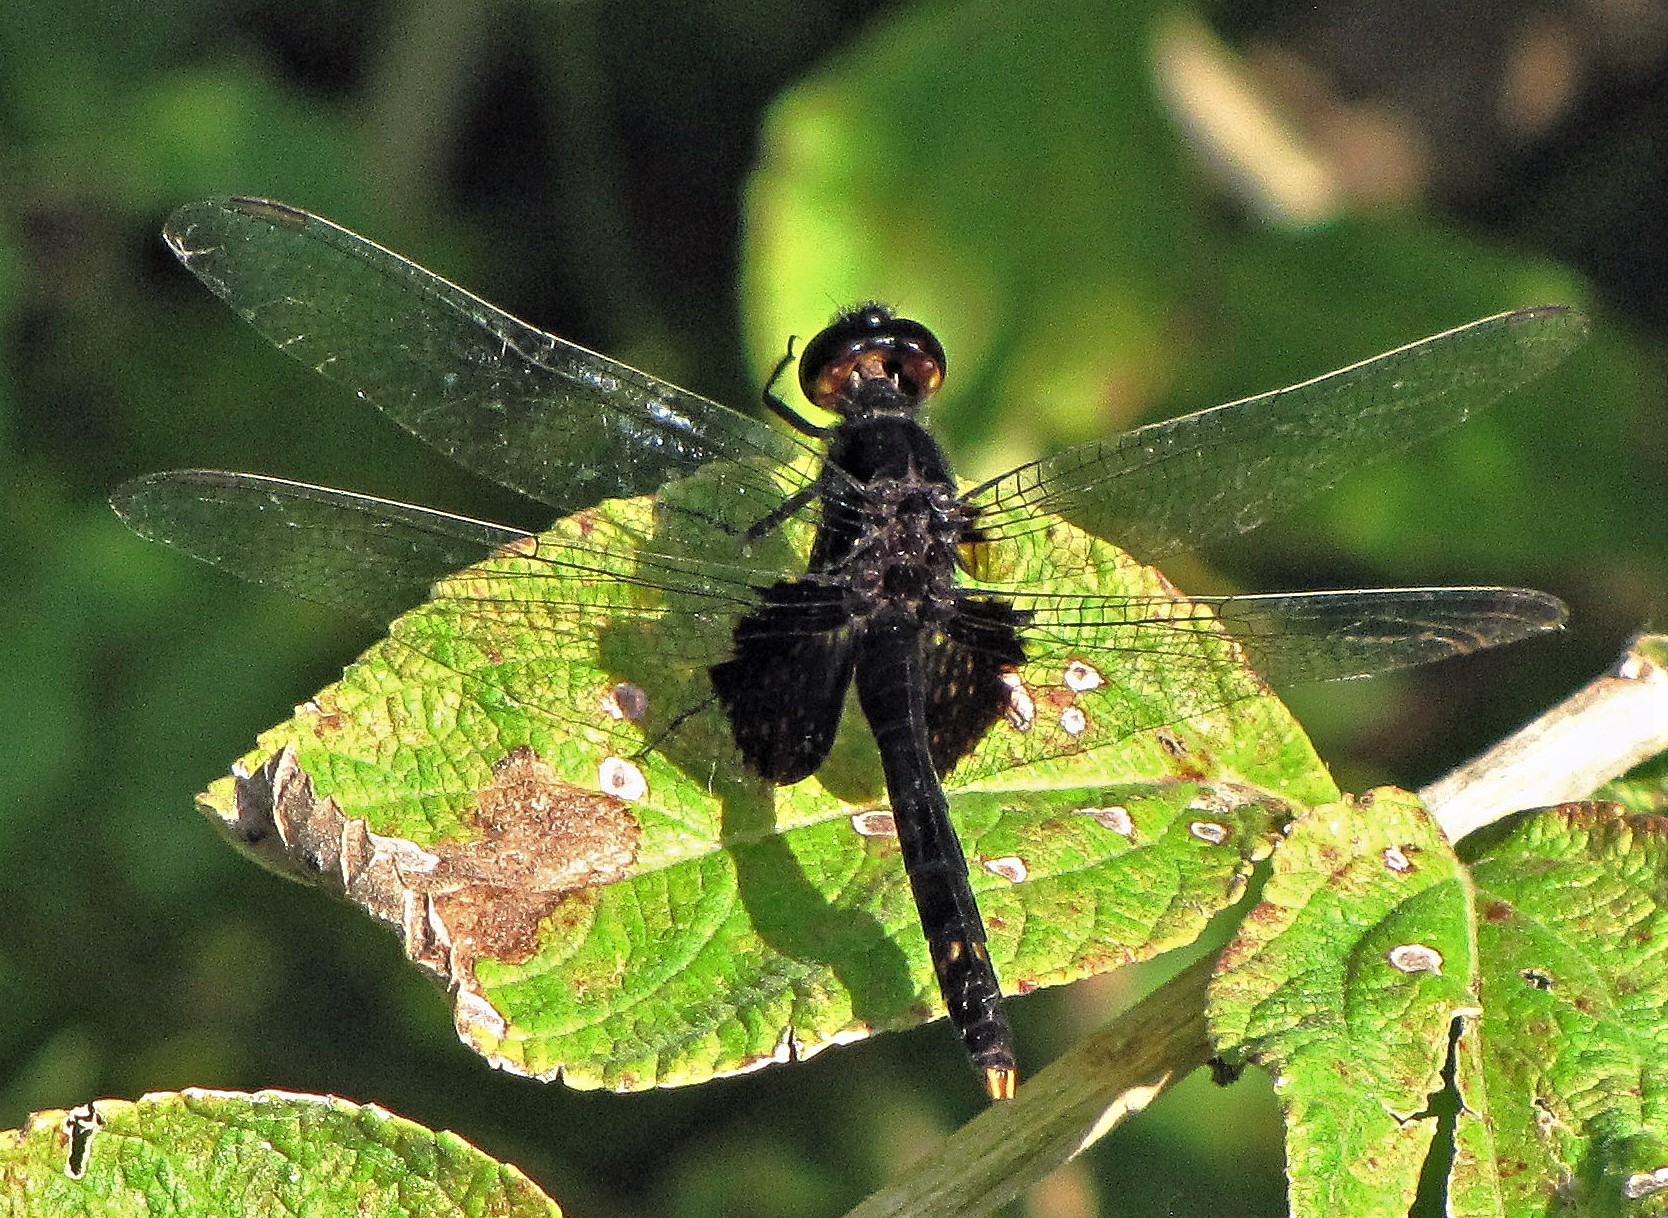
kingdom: Animalia
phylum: Arthropoda
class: Insecta
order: Odonata
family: Libellulidae
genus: Erythemis
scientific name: Erythemis attala
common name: Black pondhawk
